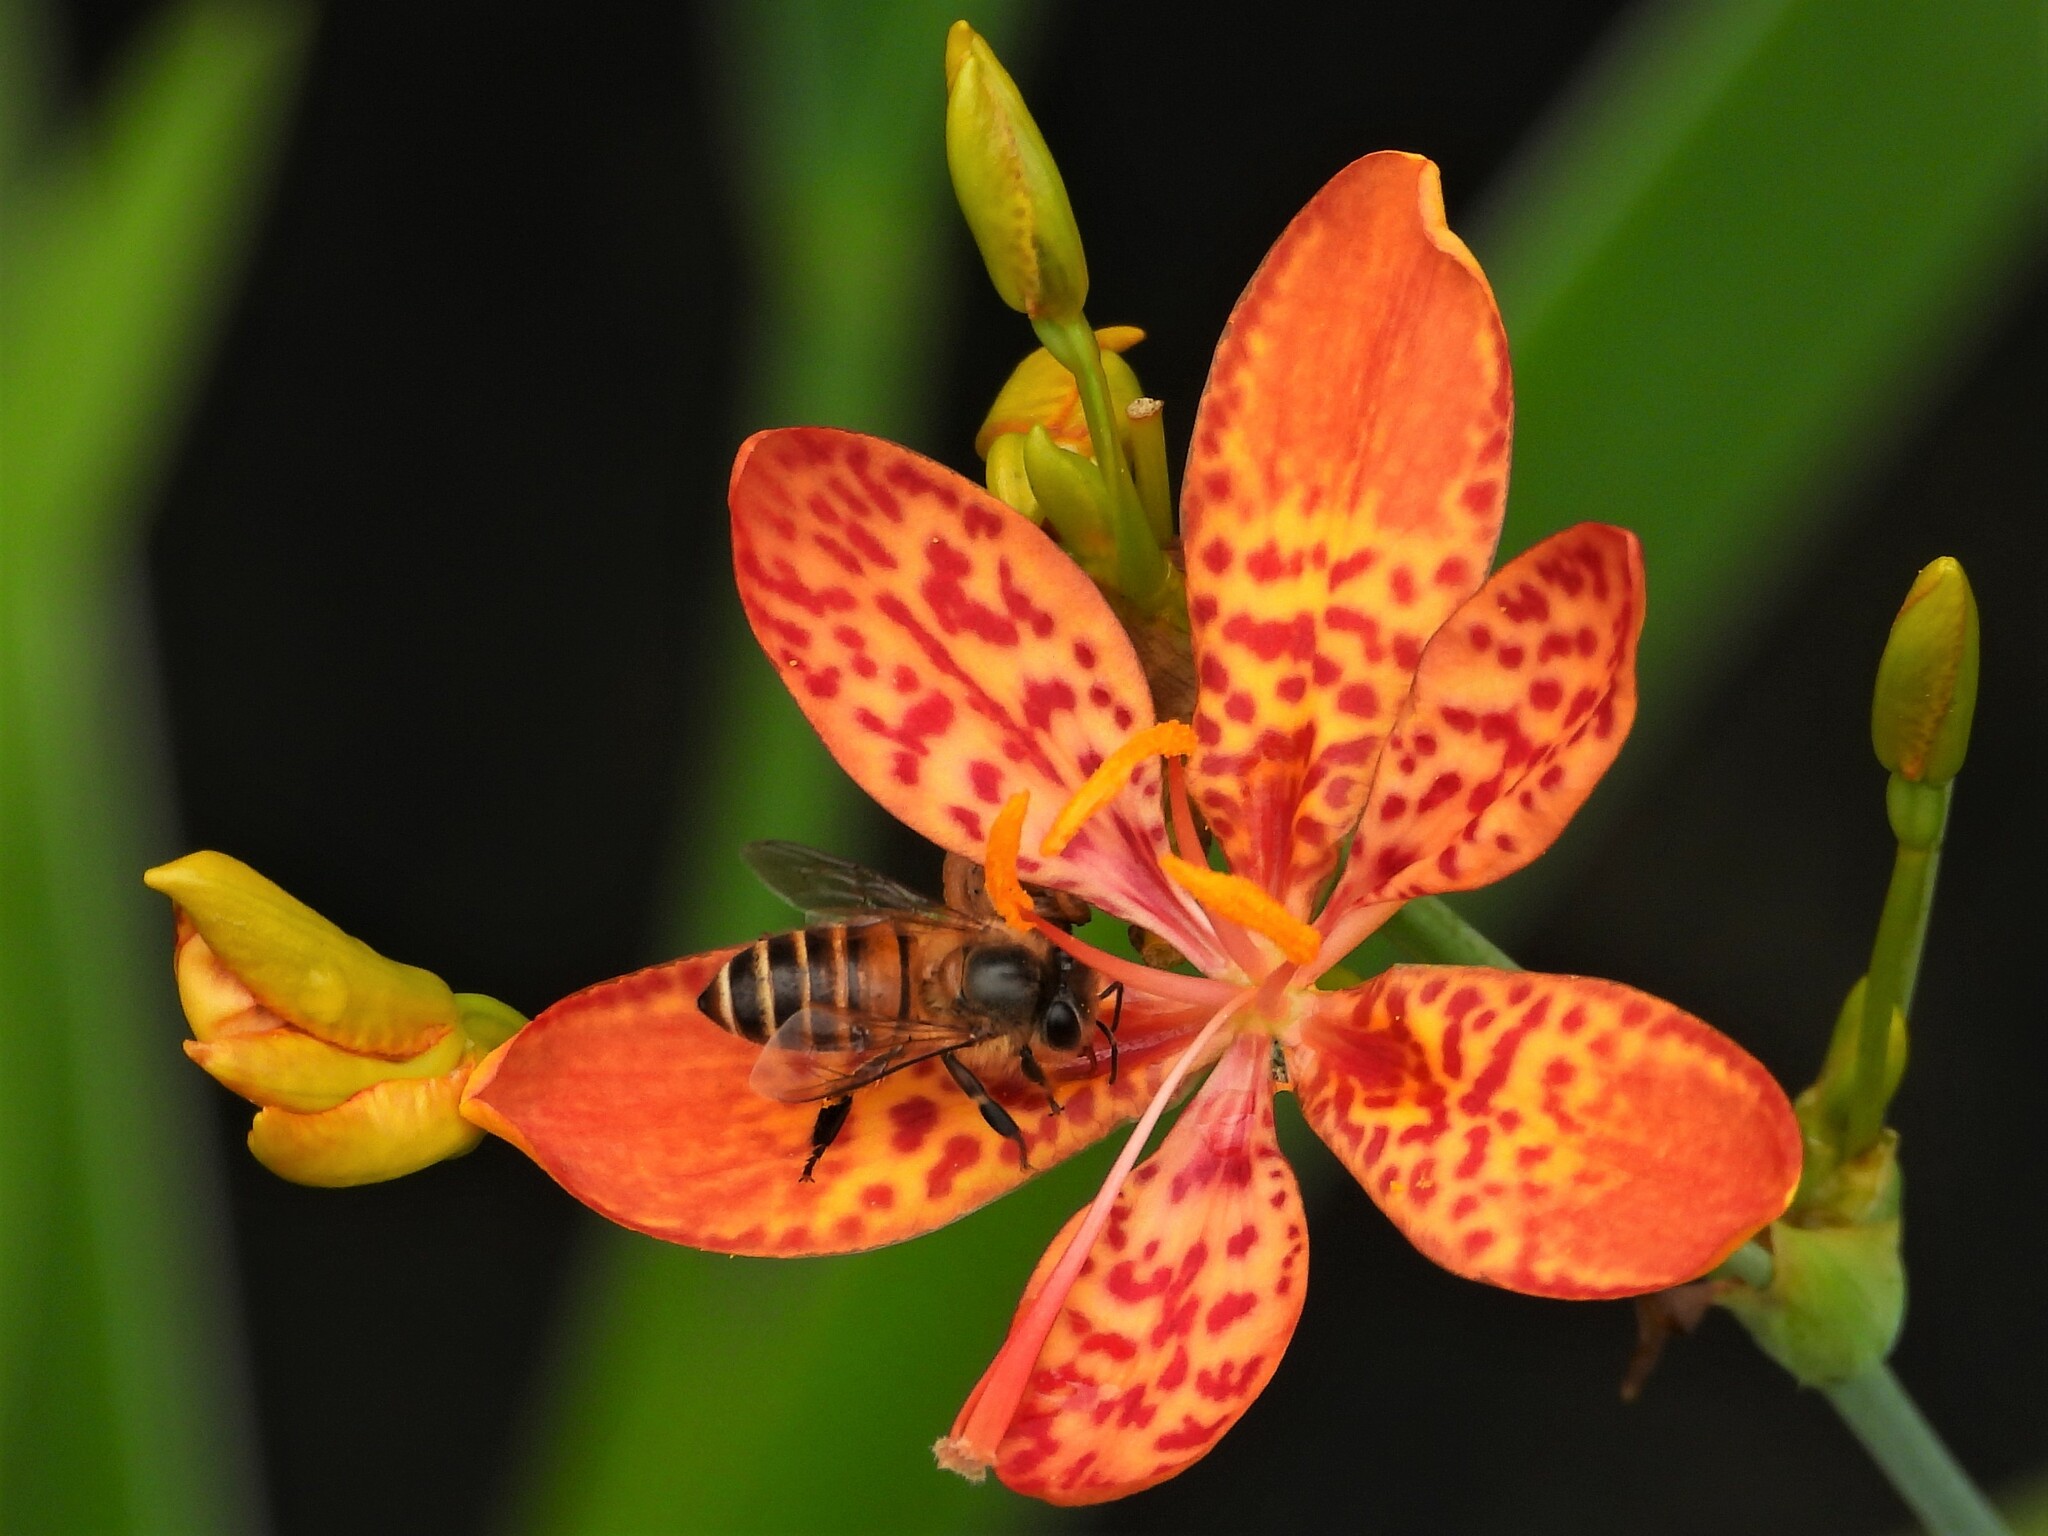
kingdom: Animalia
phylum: Arthropoda
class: Insecta
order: Hymenoptera
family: Apidae
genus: Apis
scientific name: Apis cerana
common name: Honey bee
